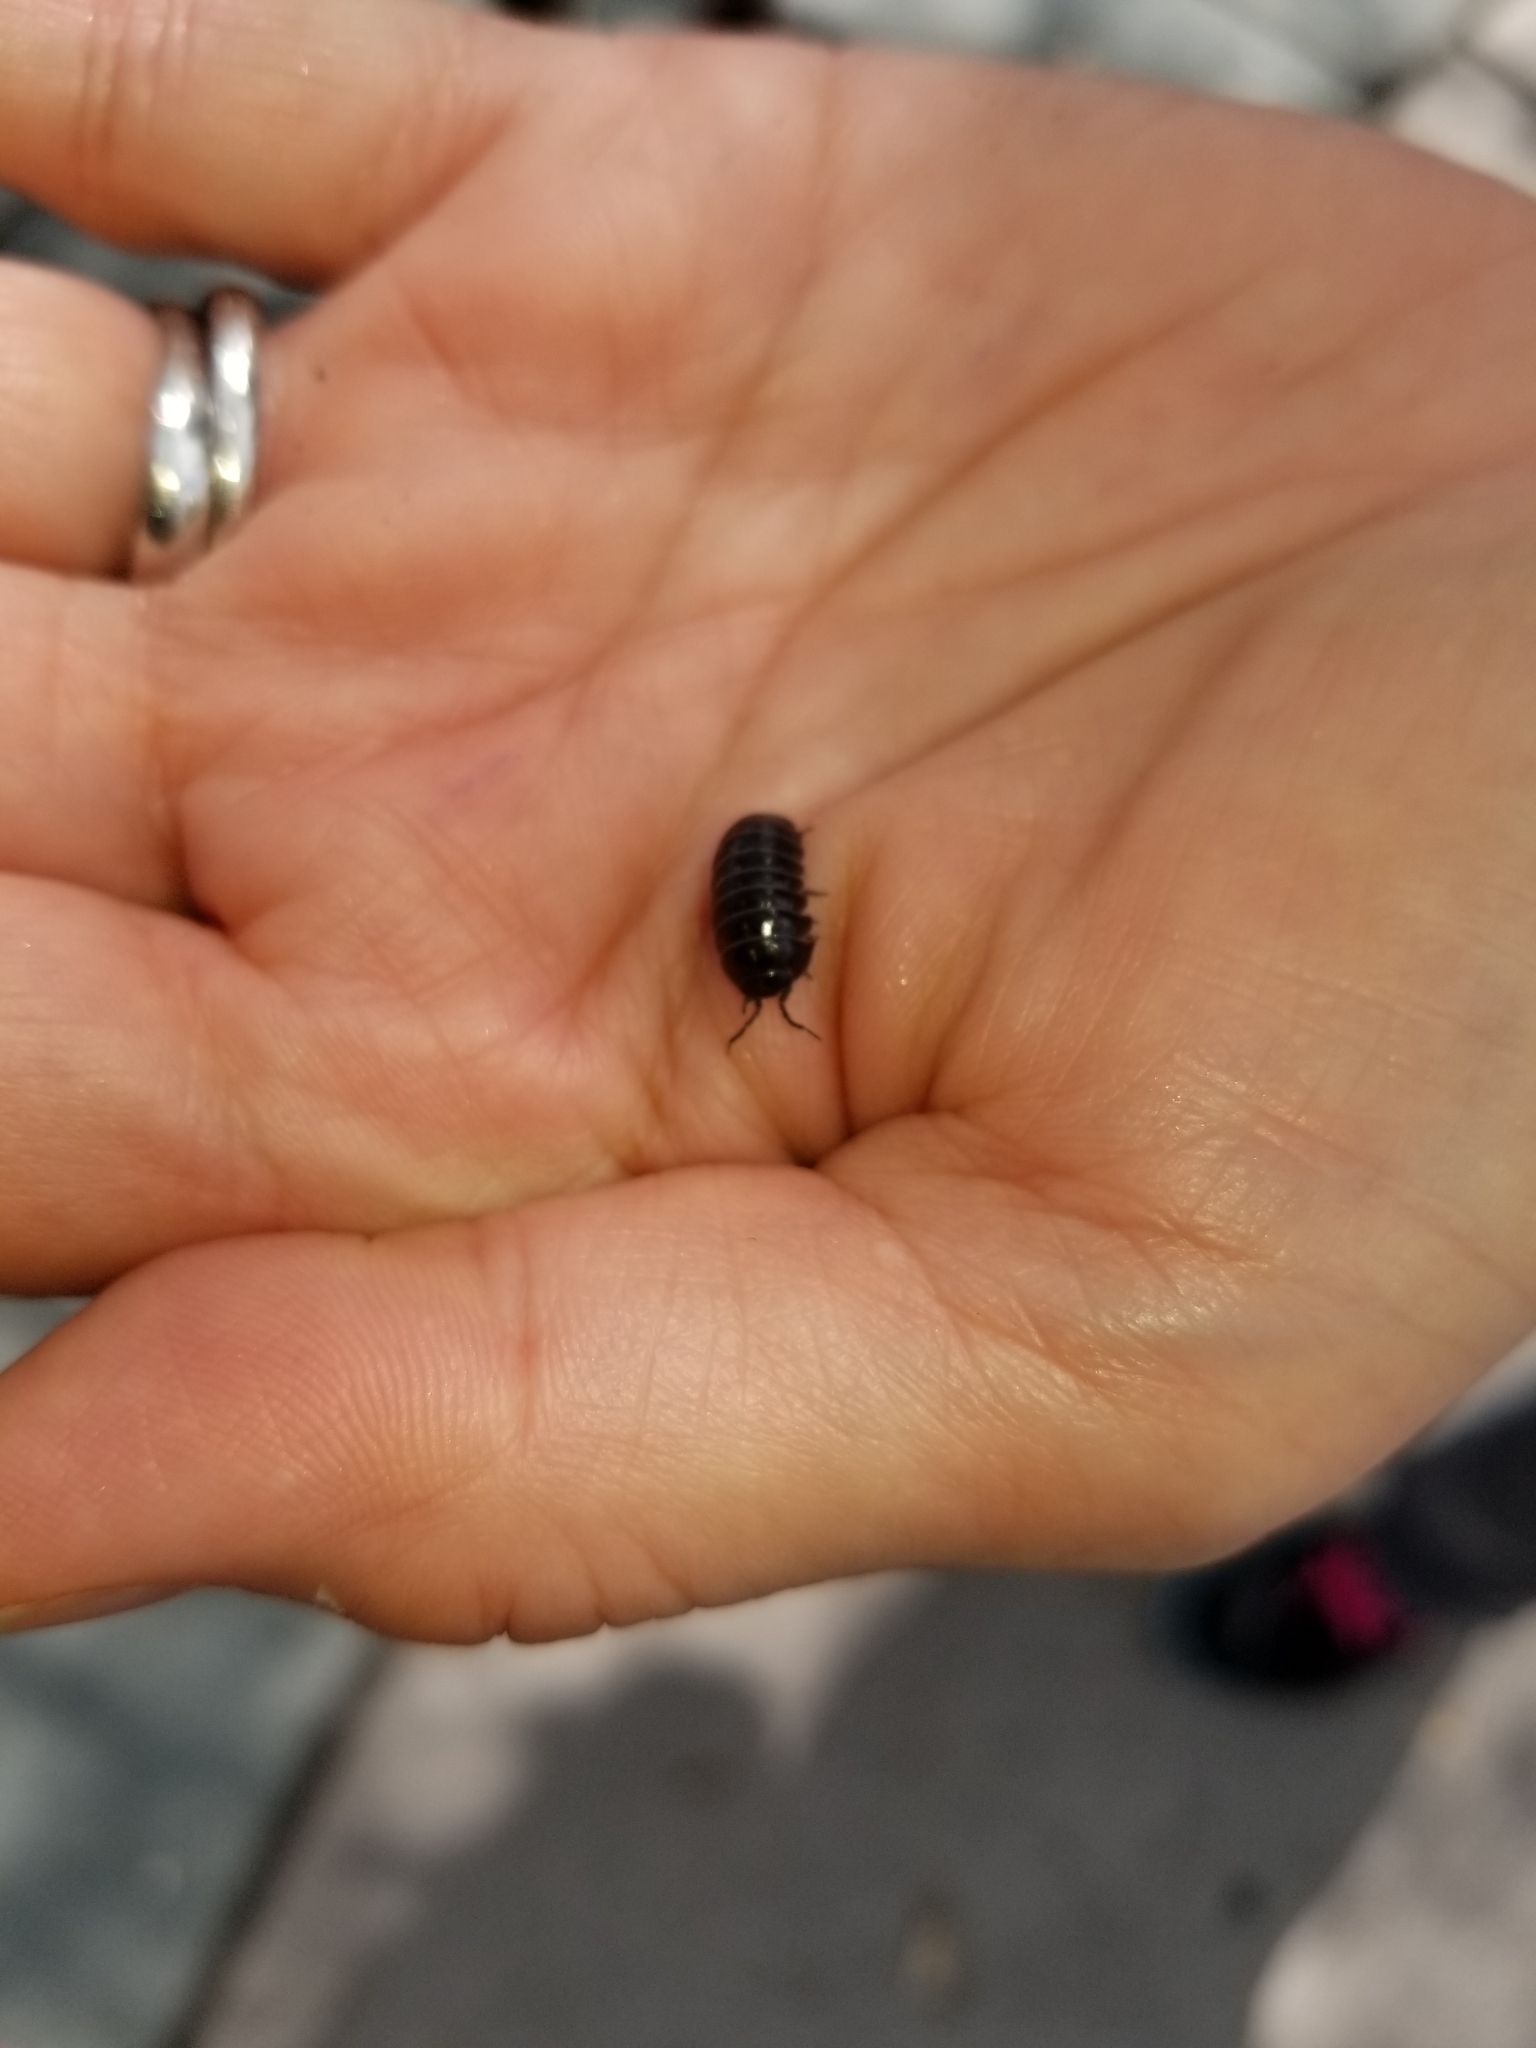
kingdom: Animalia
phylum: Arthropoda
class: Malacostraca
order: Isopoda
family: Armadillidiidae
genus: Armadillidium
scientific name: Armadillidium vulgare
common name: Common pill woodlouse
